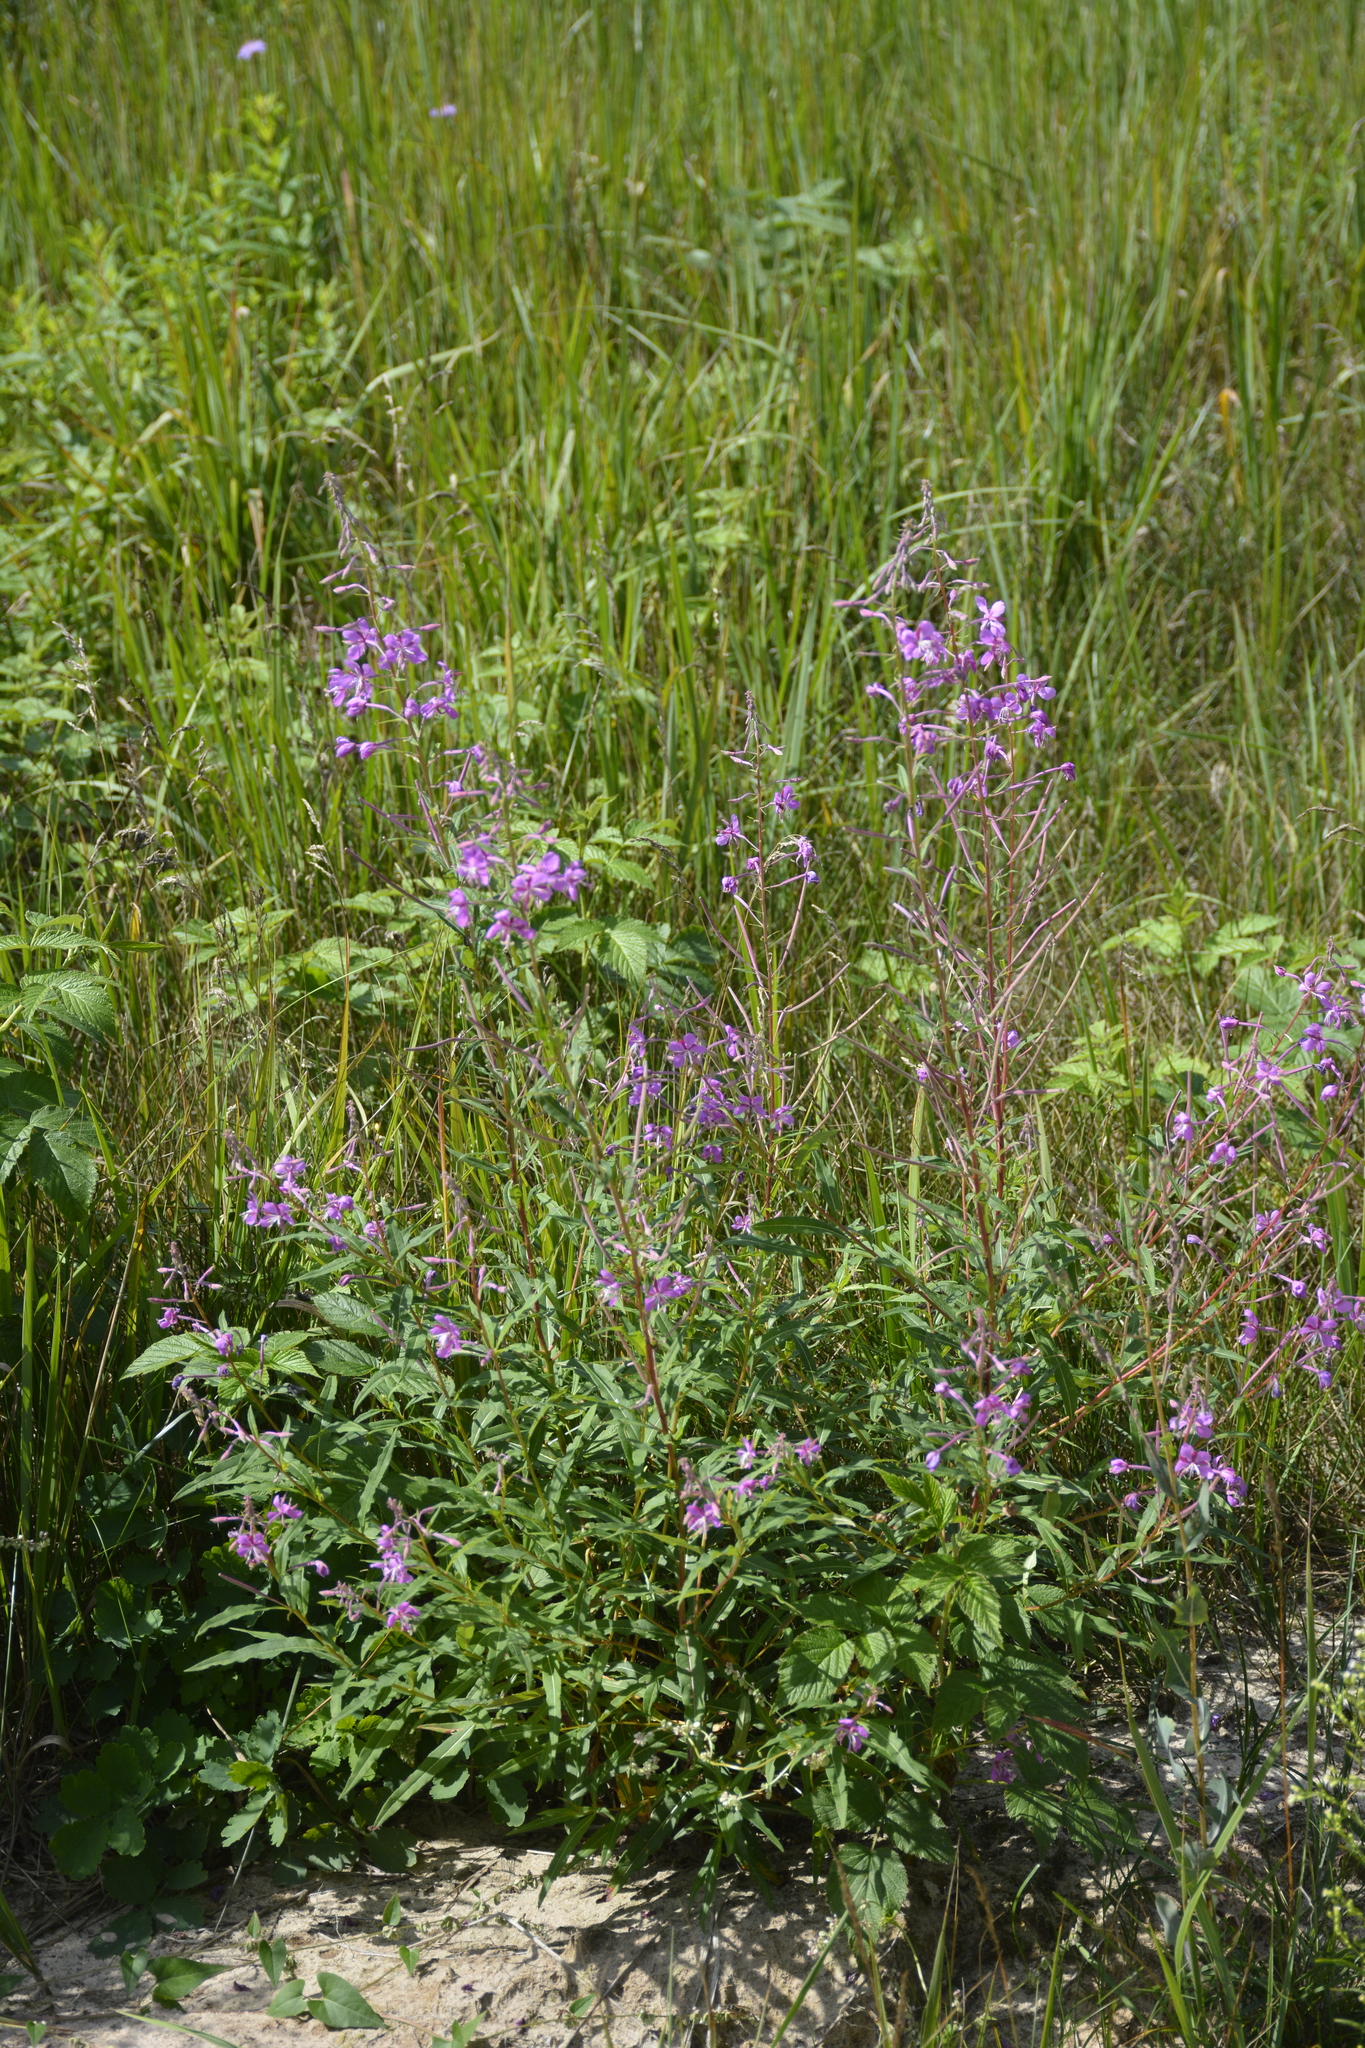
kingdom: Plantae
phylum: Tracheophyta
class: Magnoliopsida
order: Myrtales
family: Onagraceae
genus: Chamaenerion
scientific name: Chamaenerion angustifolium
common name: Fireweed
